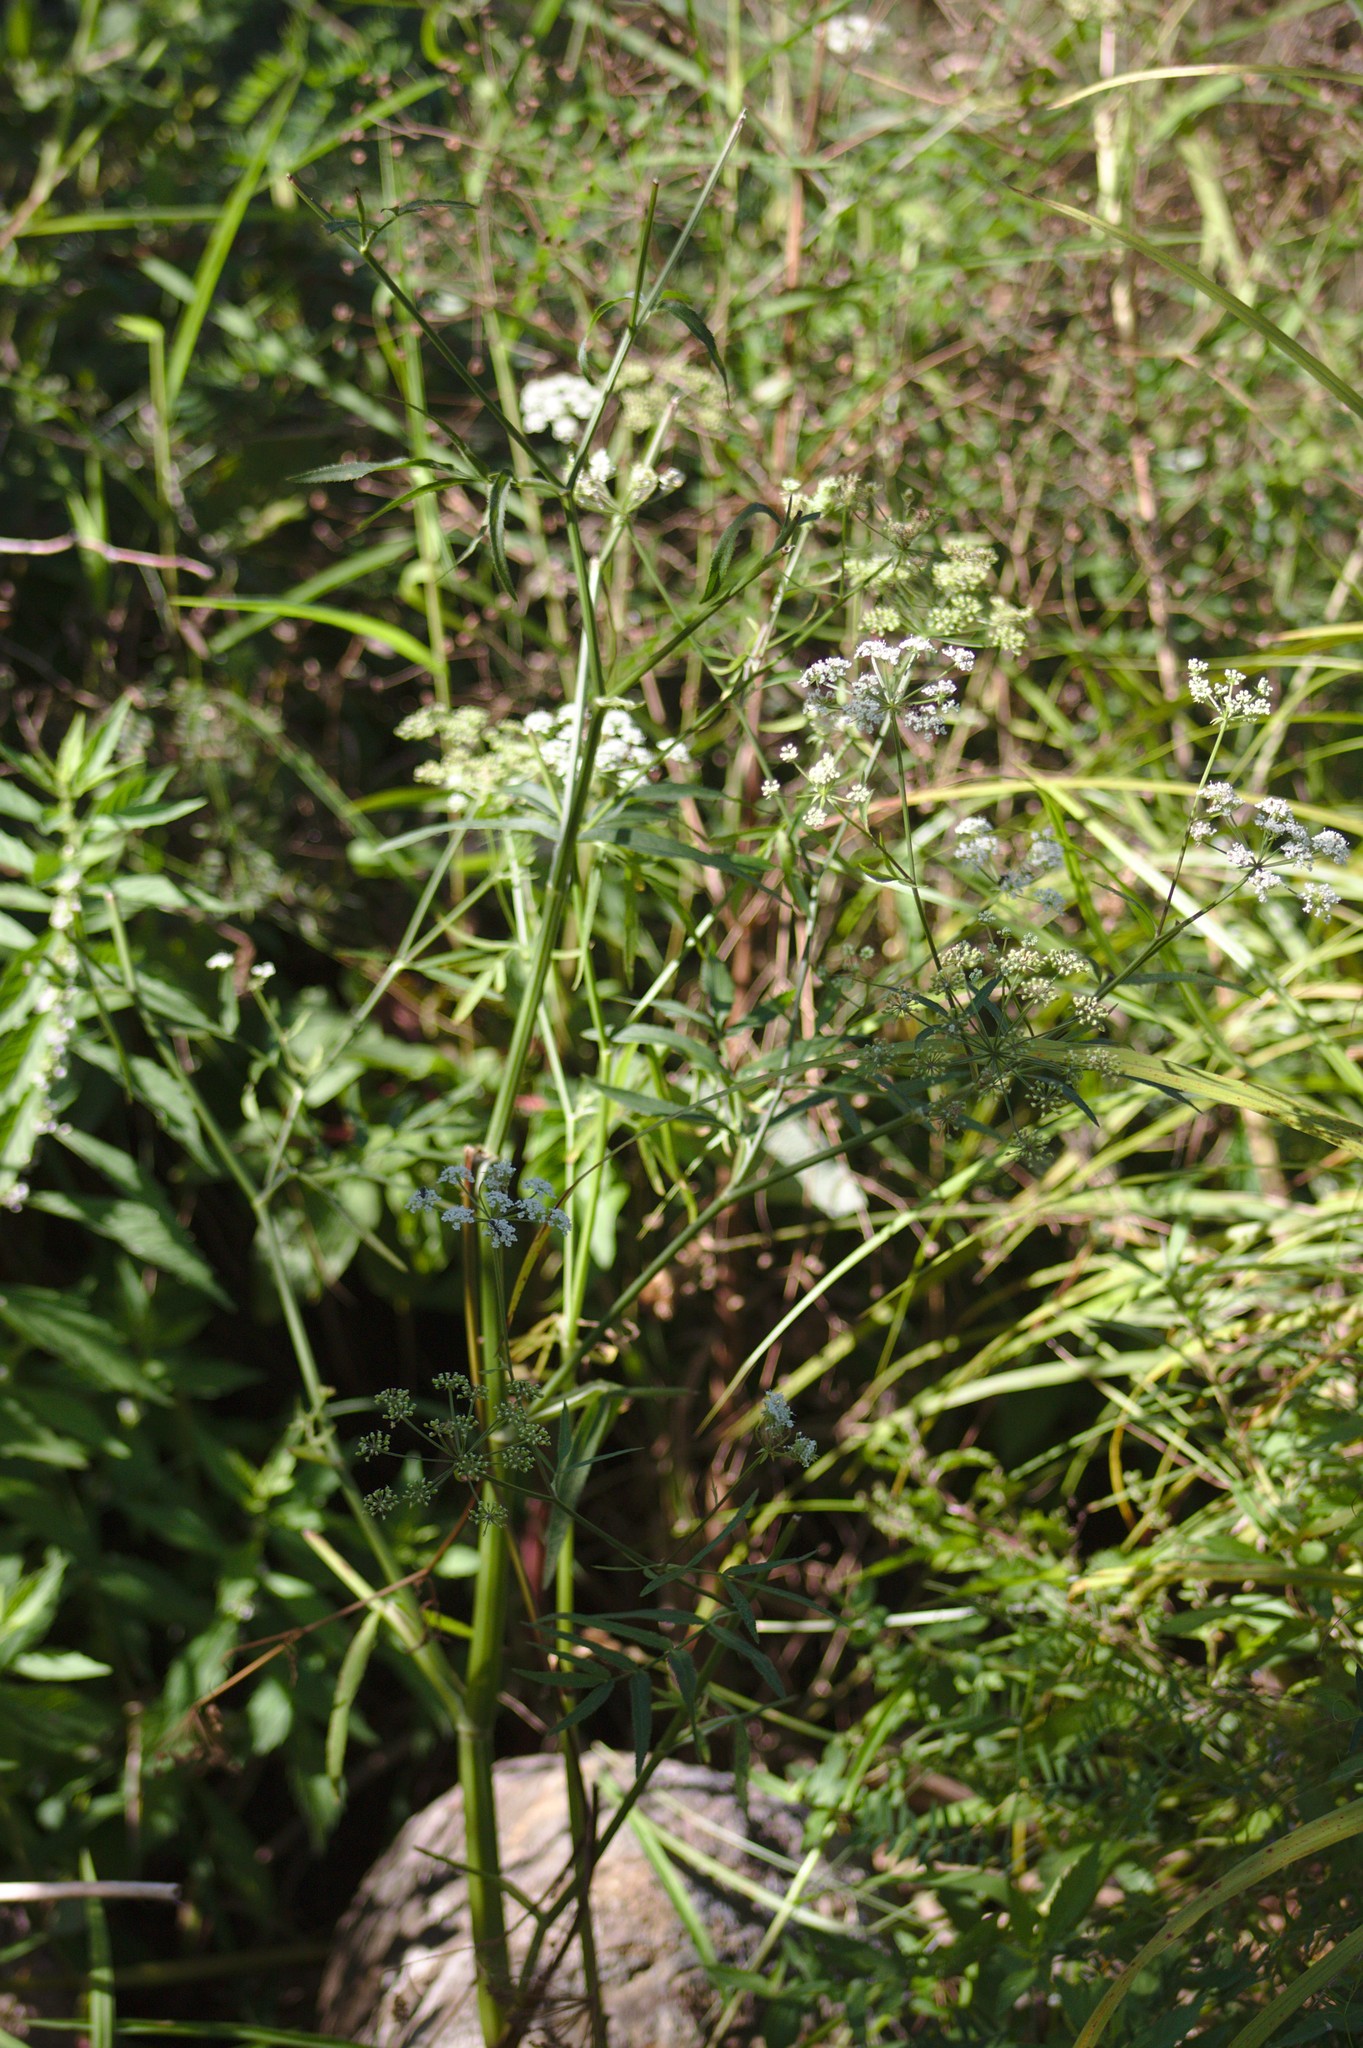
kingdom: Plantae
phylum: Tracheophyta
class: Magnoliopsida
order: Apiales
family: Apiaceae
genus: Sium
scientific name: Sium suave
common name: Hemlock water-parsnip
